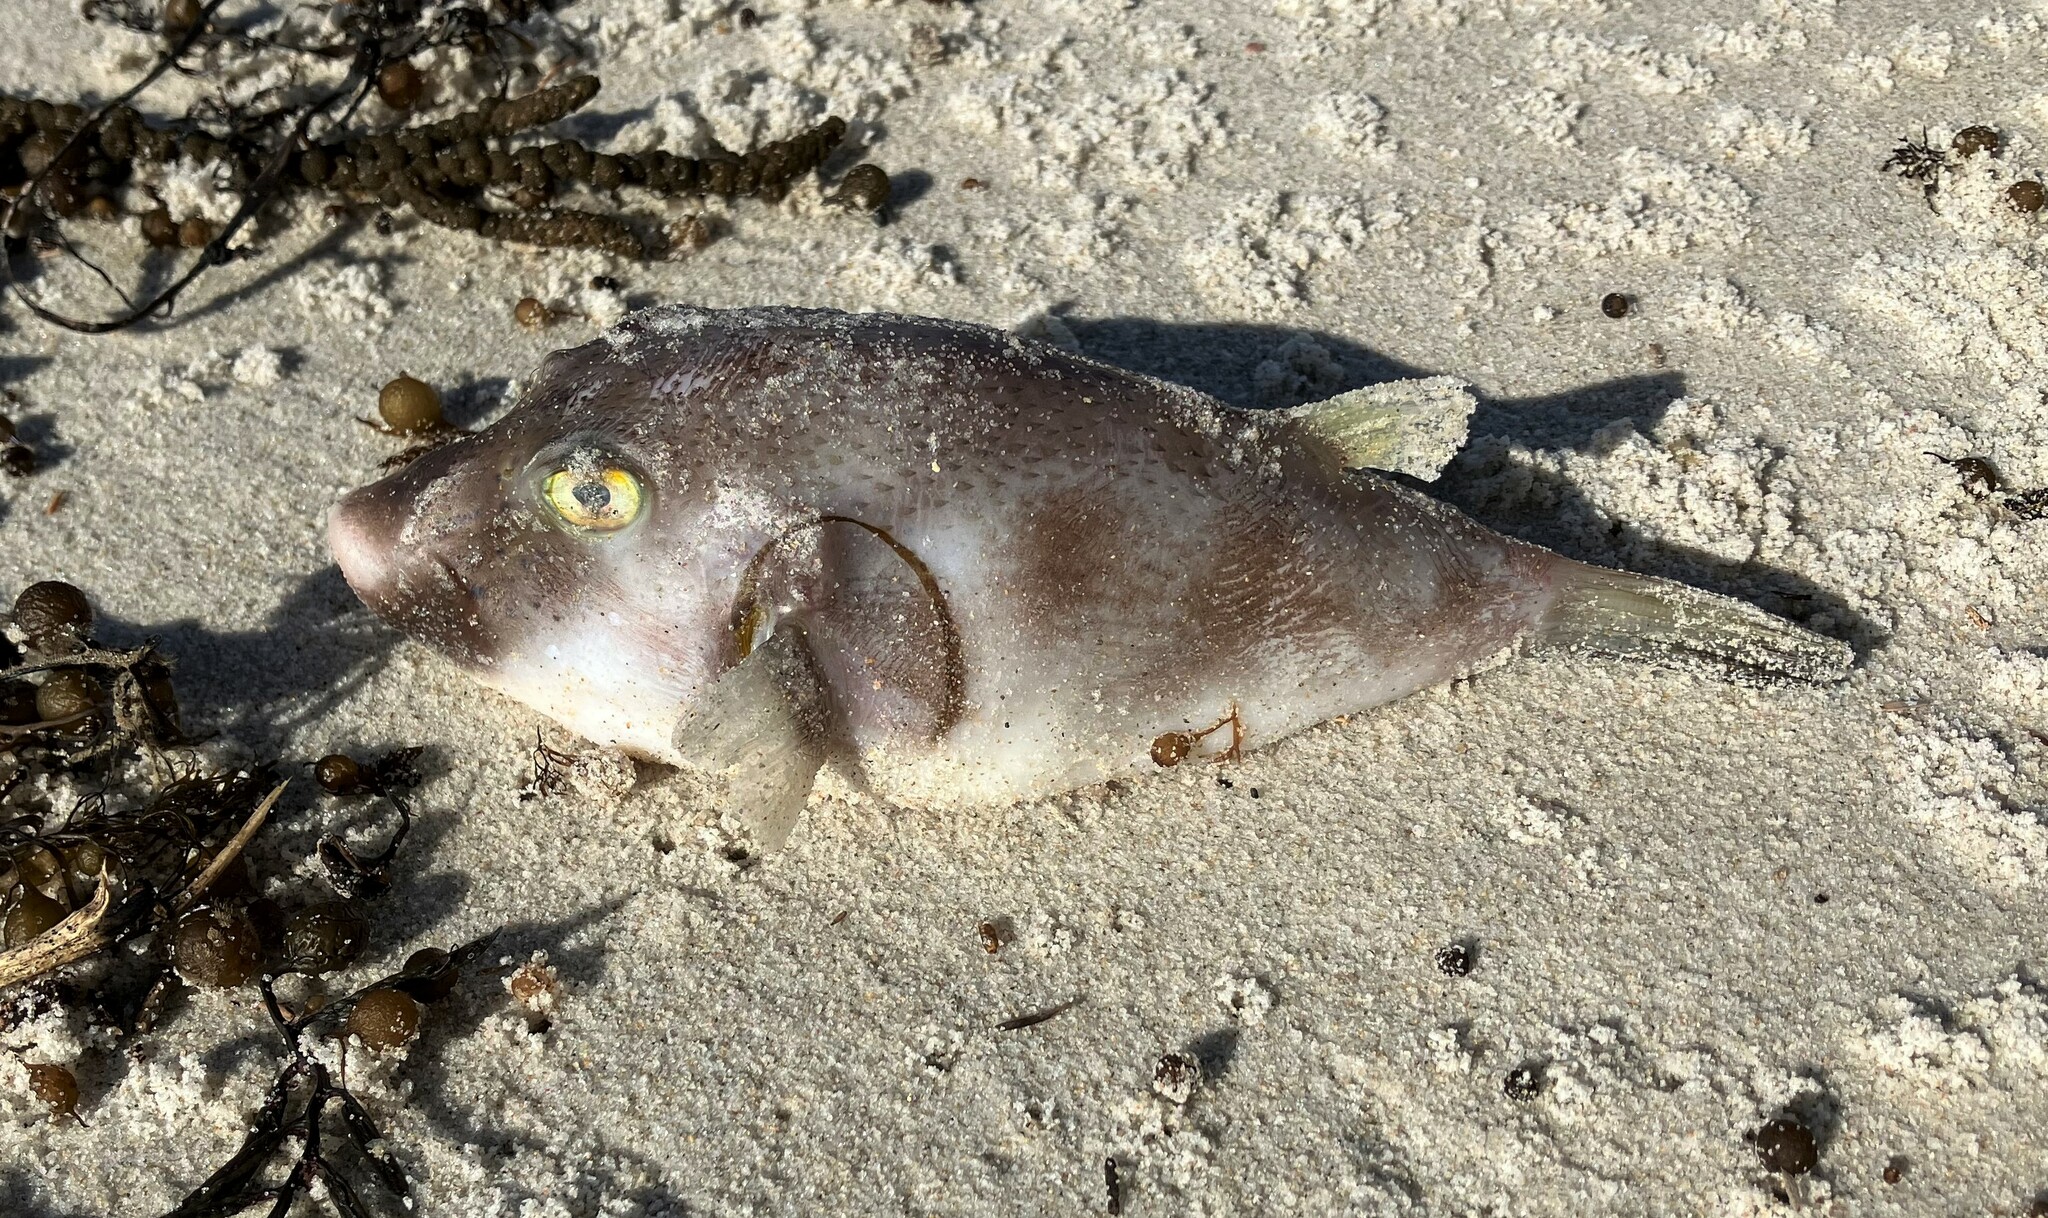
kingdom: Animalia
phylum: Chordata
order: Tetraodontiformes
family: Tetraodontidae
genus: Omegophora
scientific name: Omegophora armilla
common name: Ringed pufferfish
